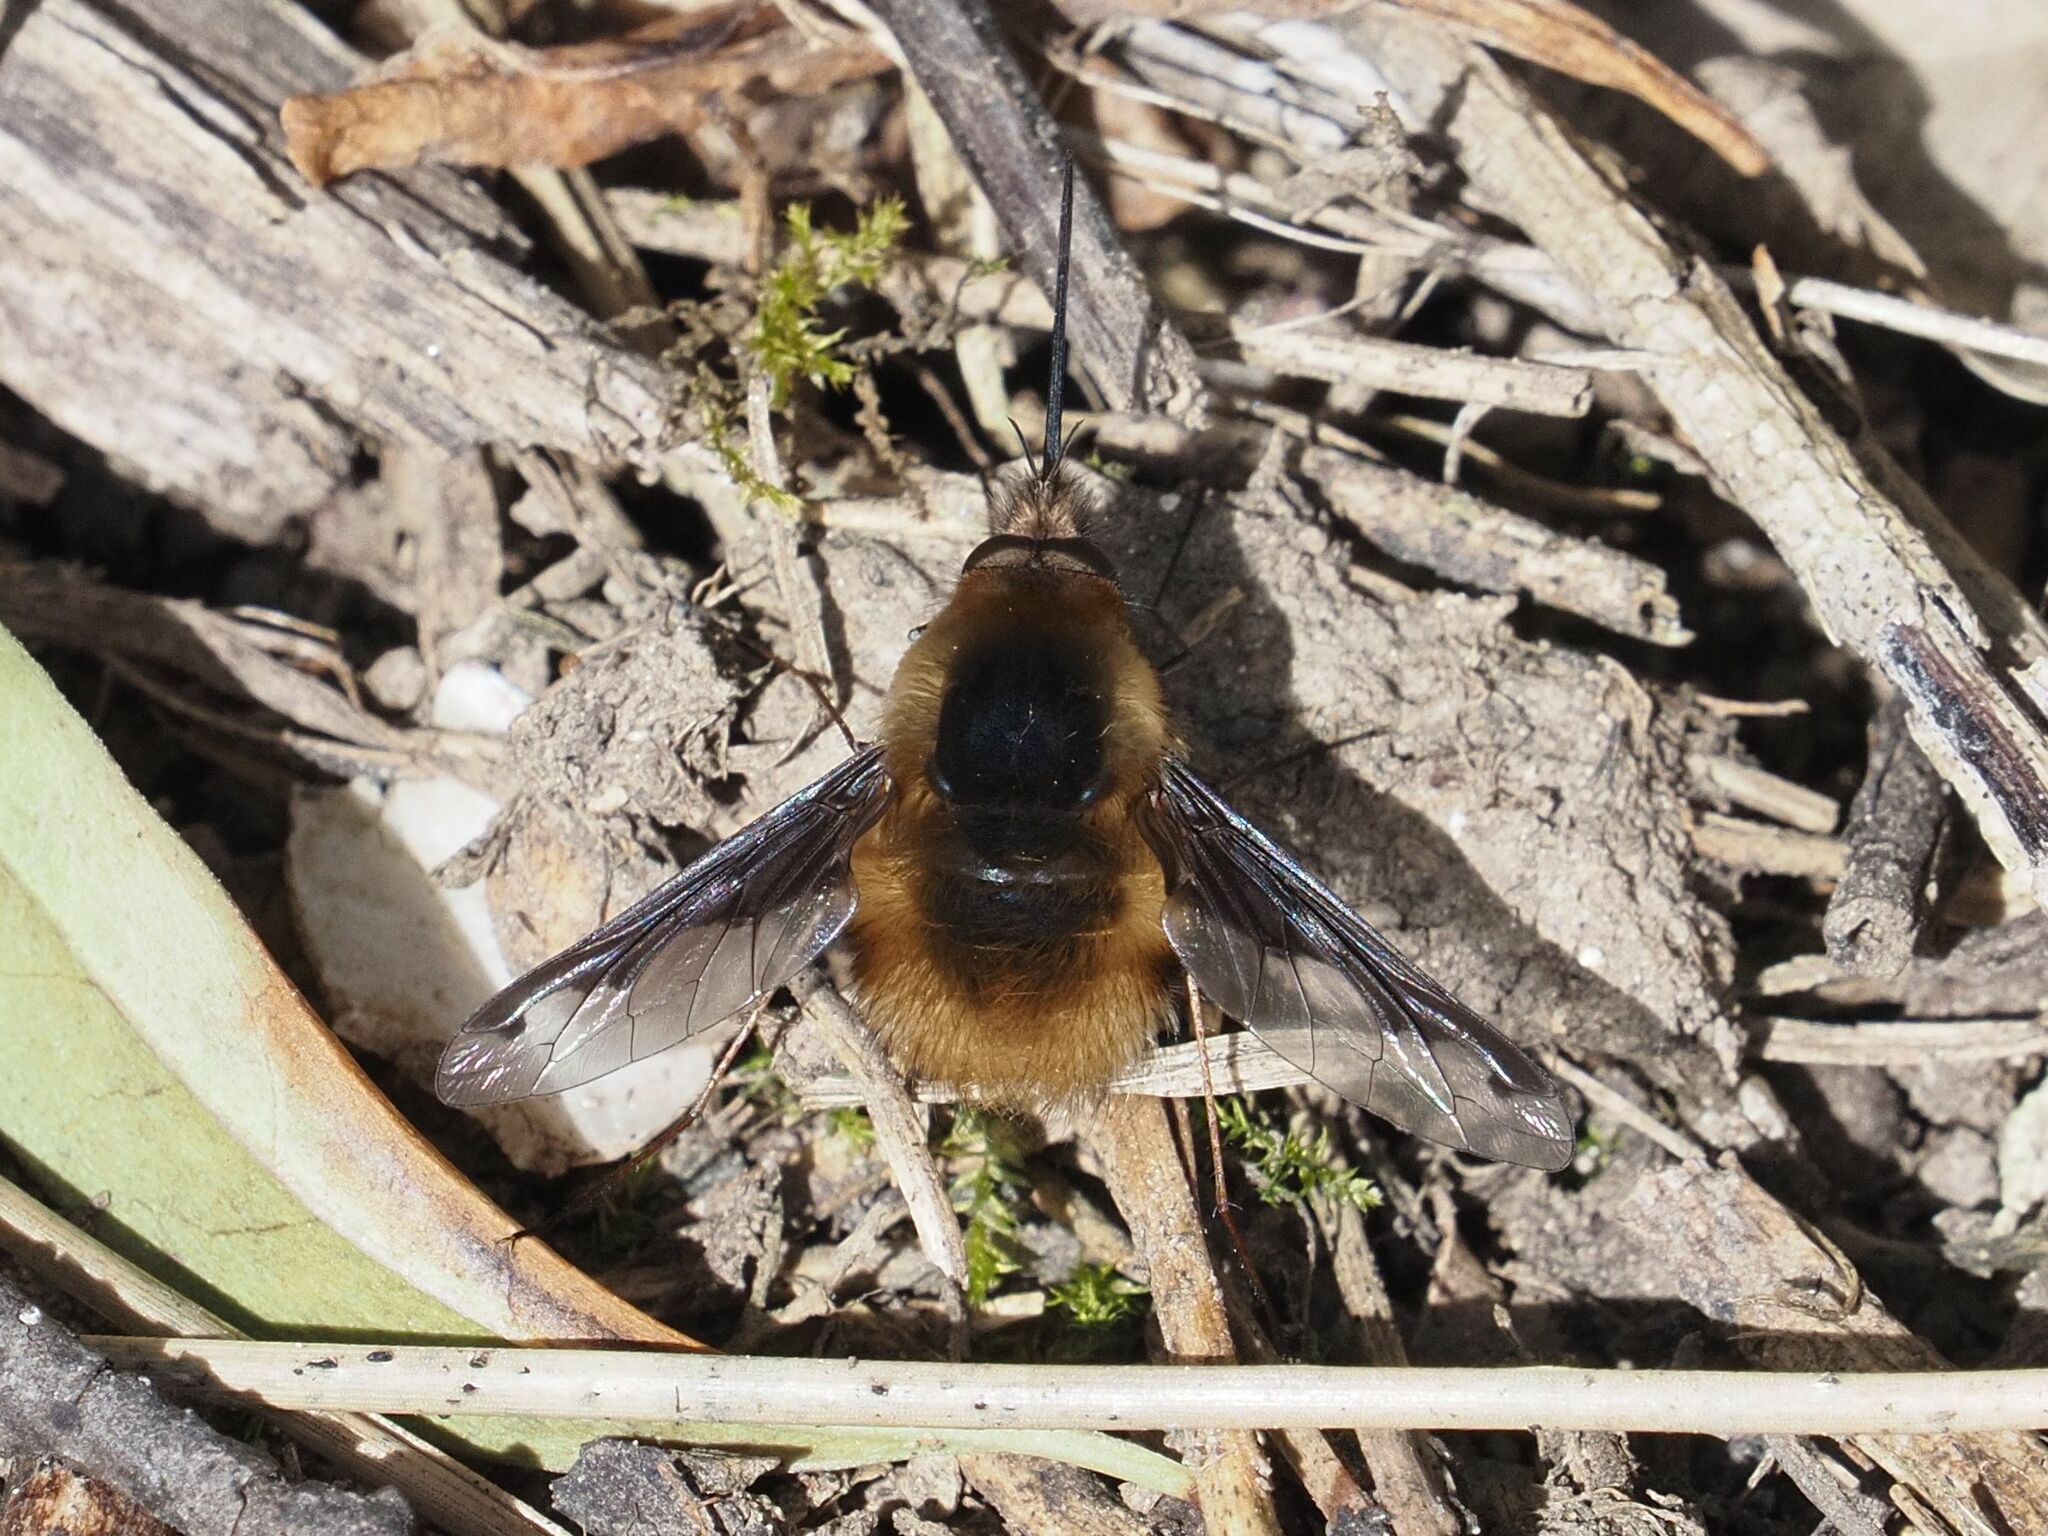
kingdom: Animalia
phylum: Arthropoda
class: Insecta
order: Diptera
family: Bombyliidae
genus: Bombylius
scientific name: Bombylius major
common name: Bee fly
